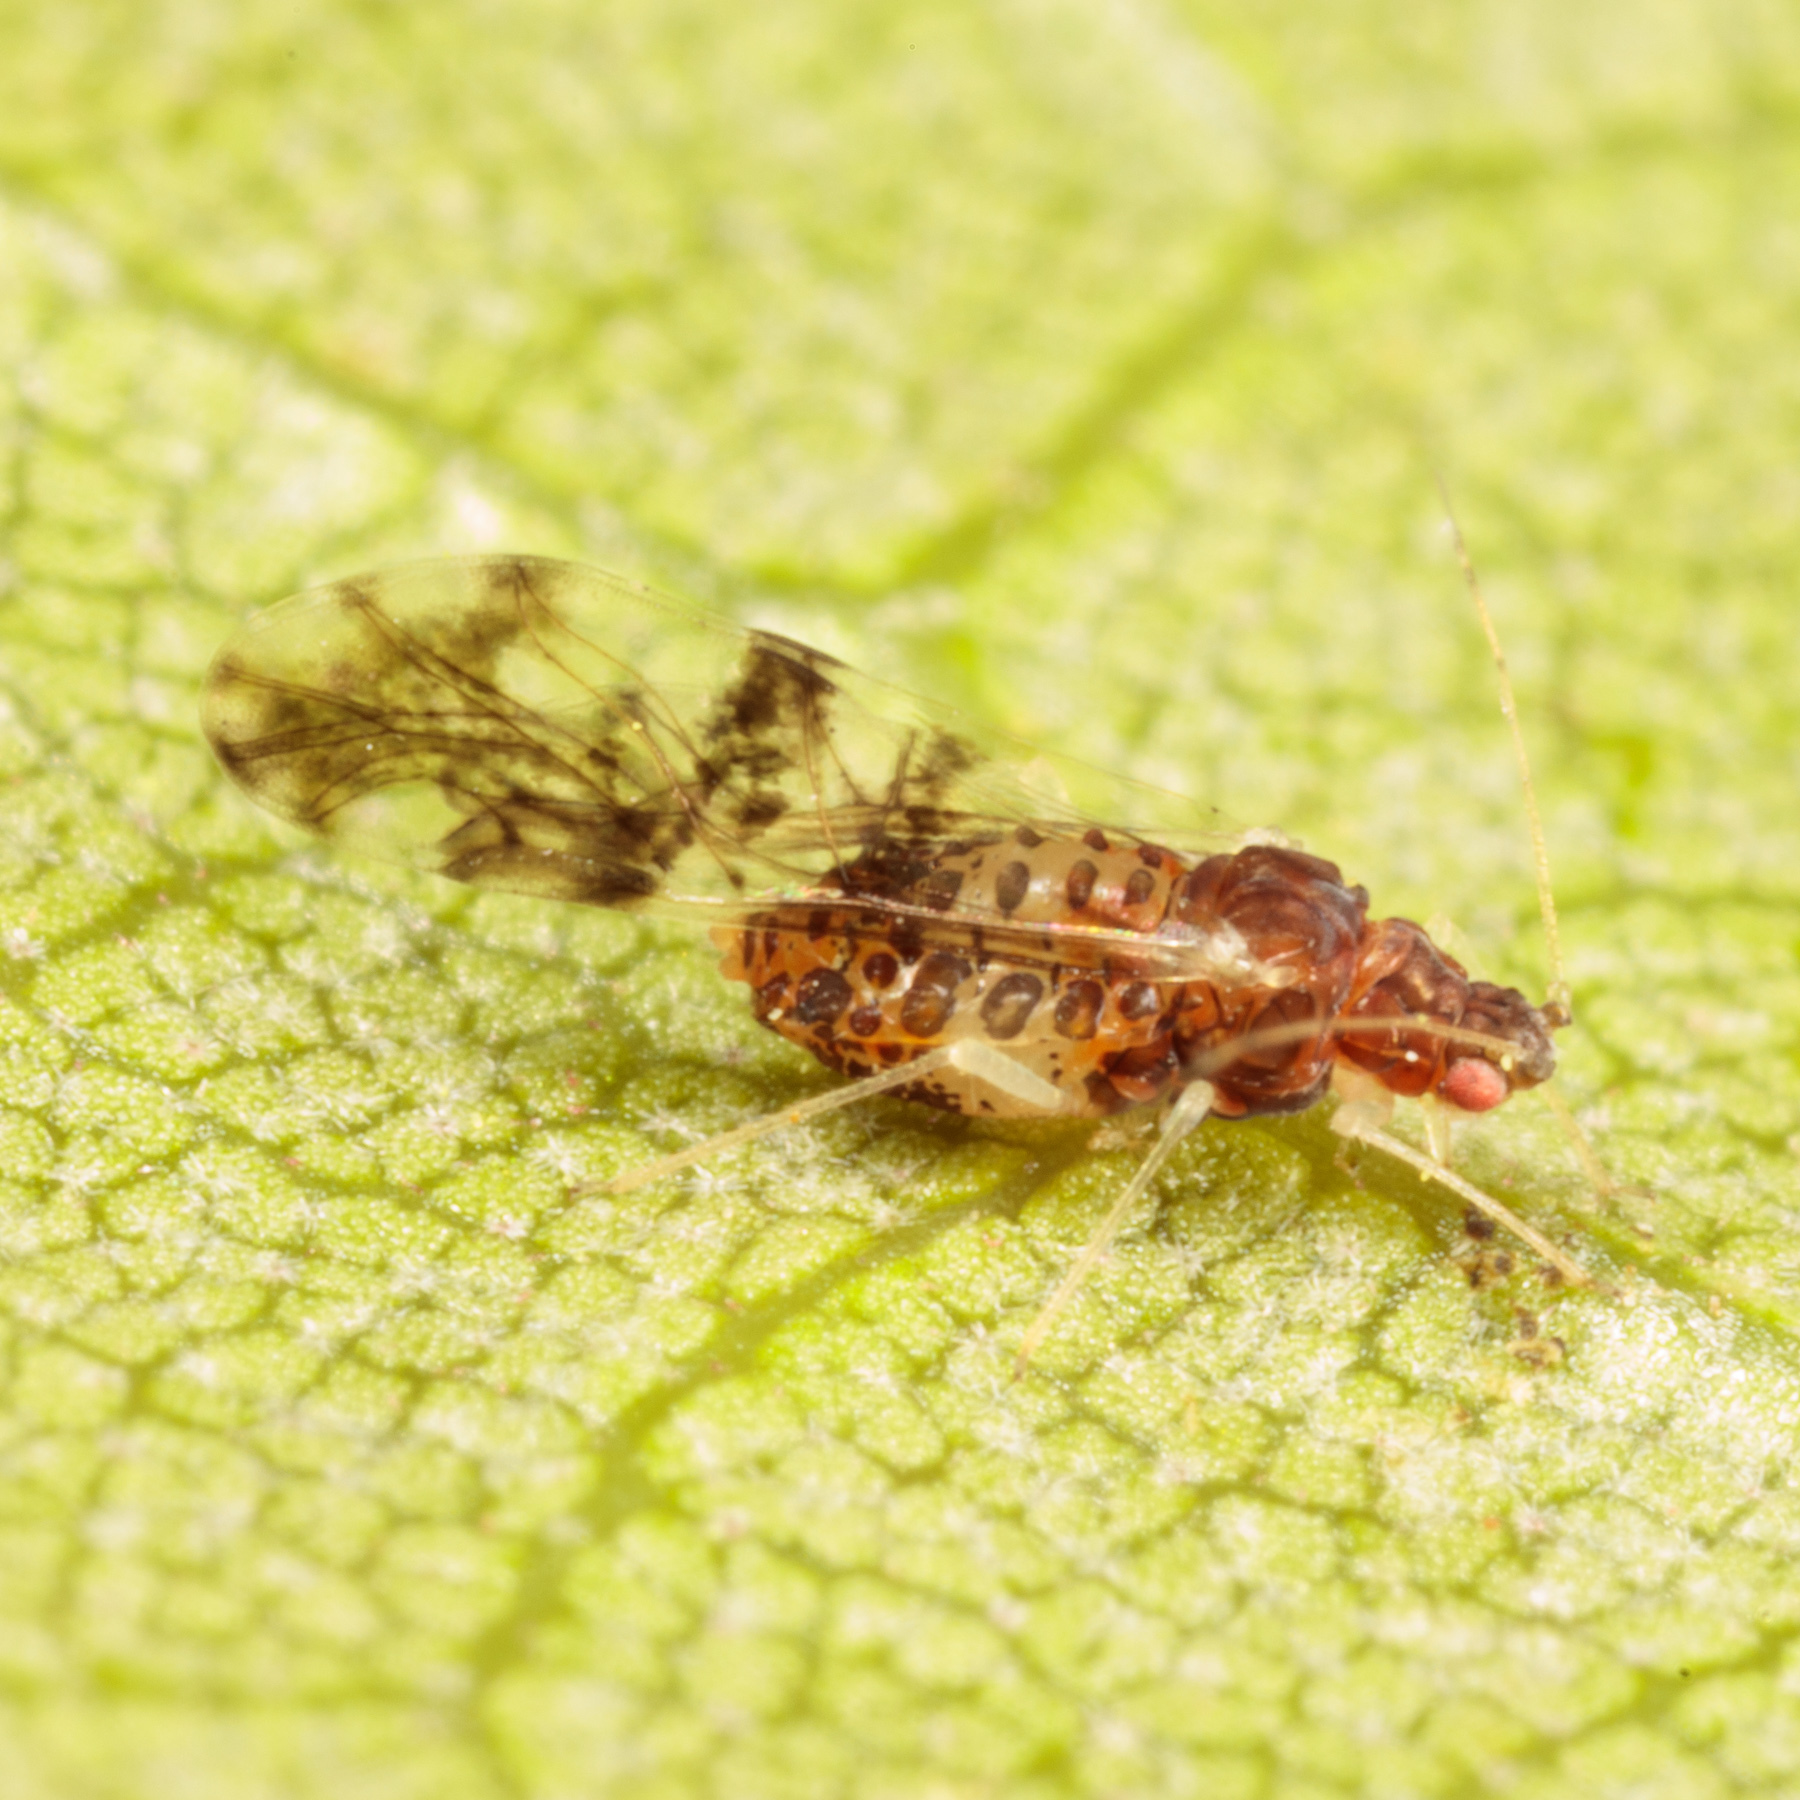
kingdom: Animalia
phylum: Arthropoda
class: Insecta
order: Hemiptera
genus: Neomyzocallis
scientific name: Neomyzocallis
